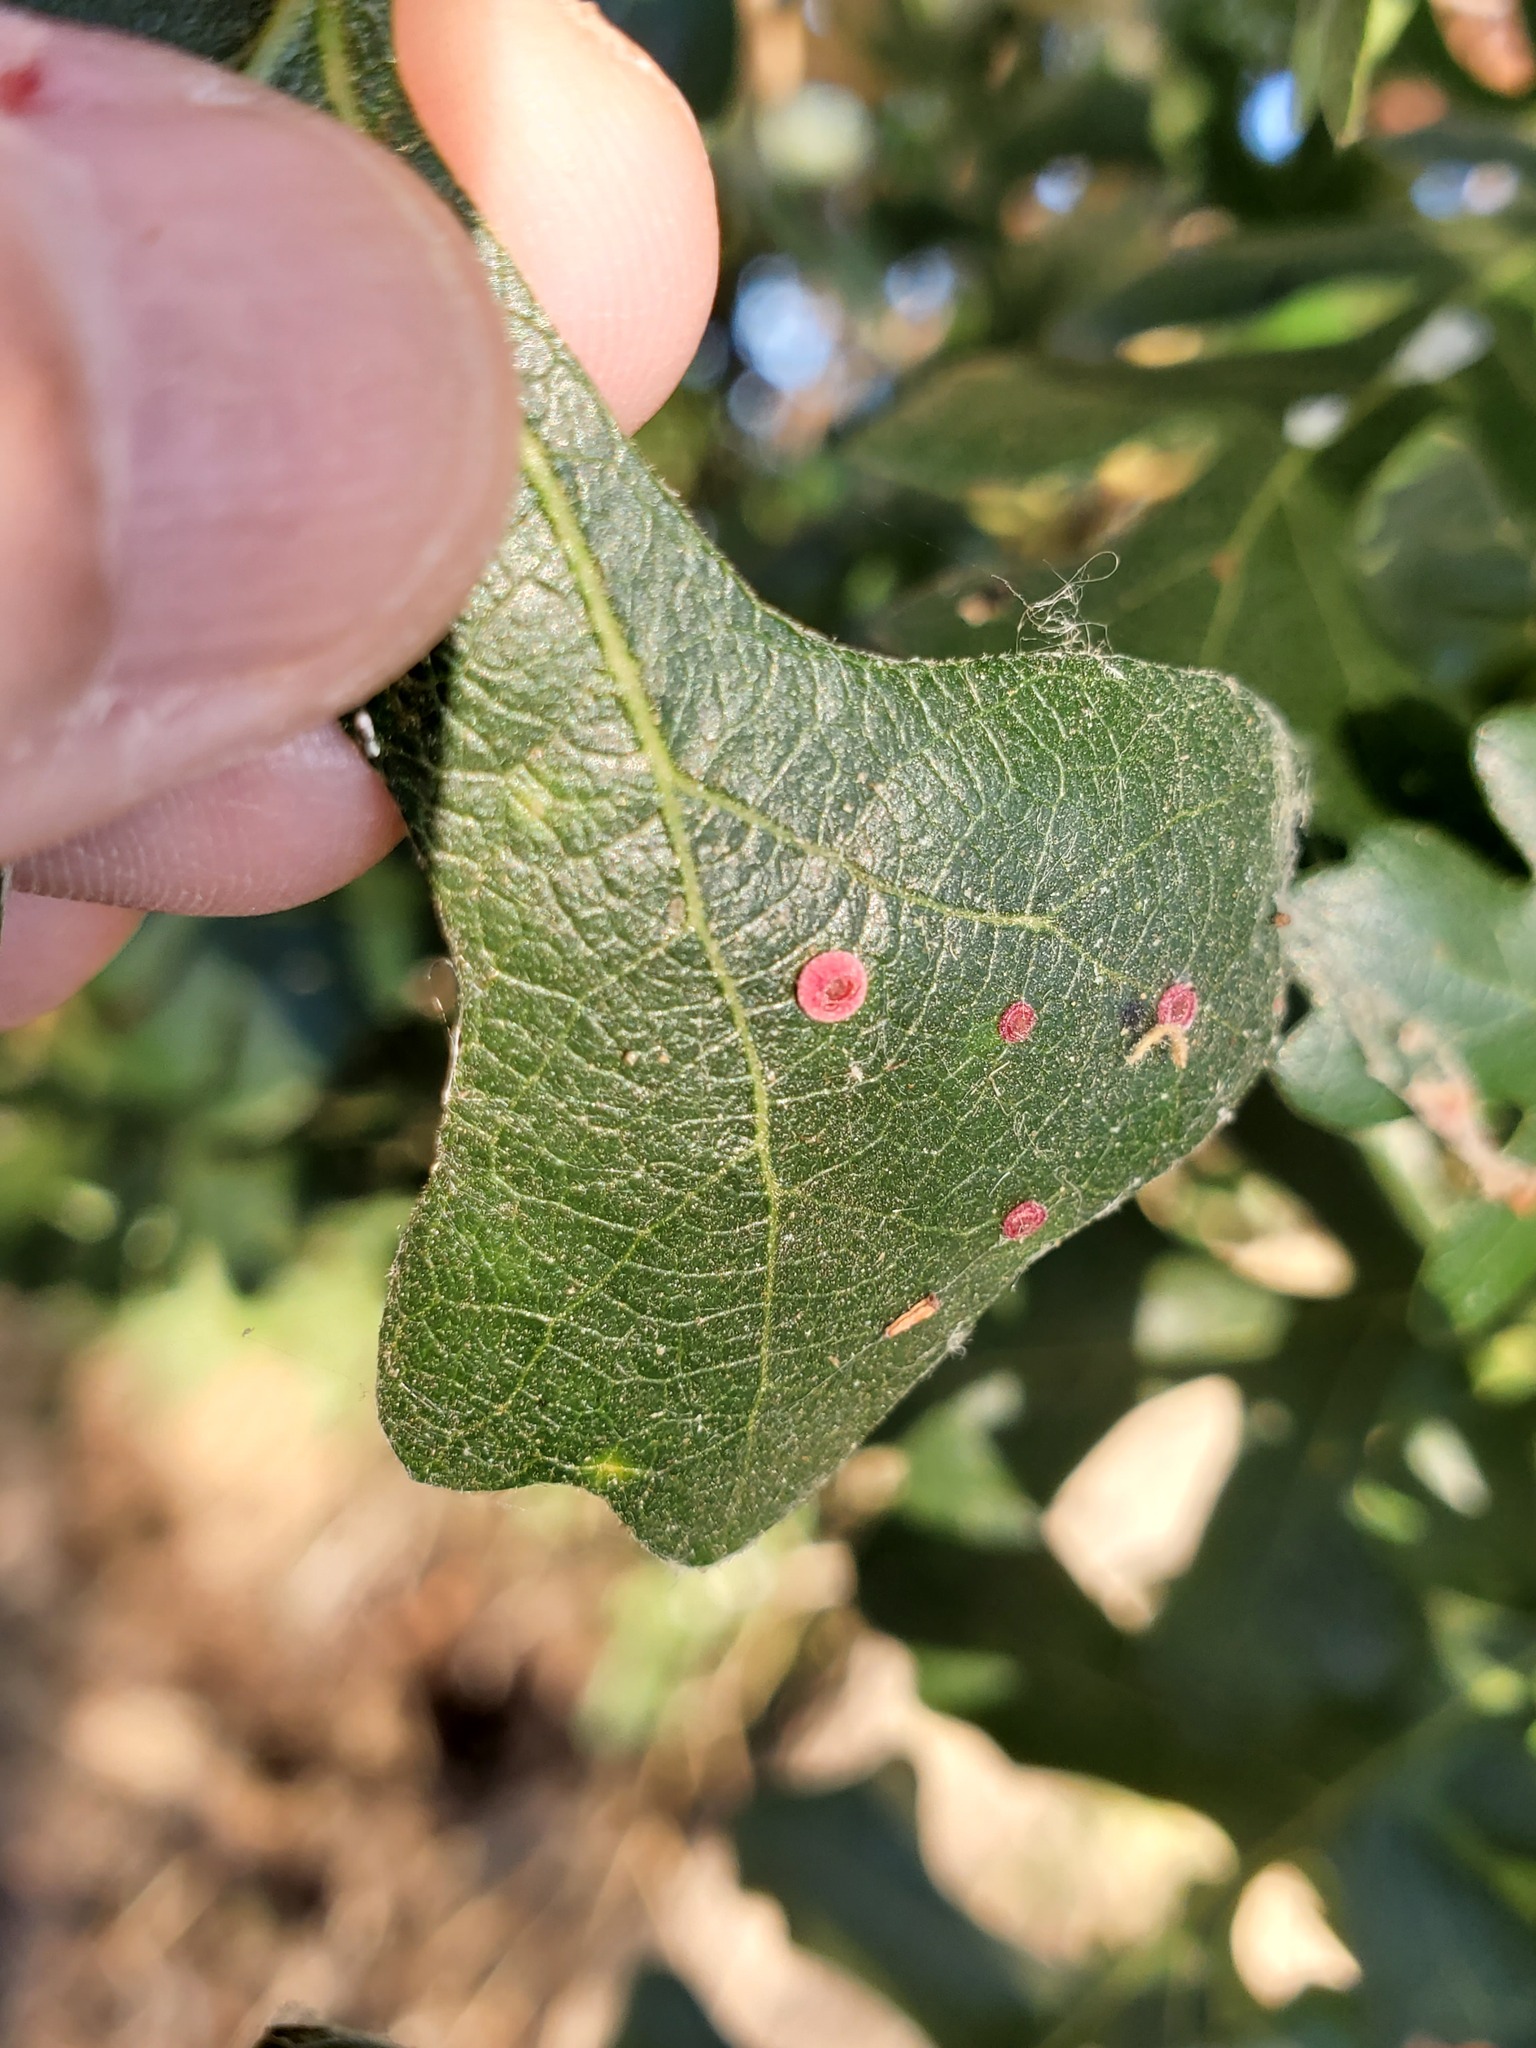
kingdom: Animalia
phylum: Arthropoda
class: Insecta
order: Hymenoptera
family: Cynipidae
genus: Andricus
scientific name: Andricus
